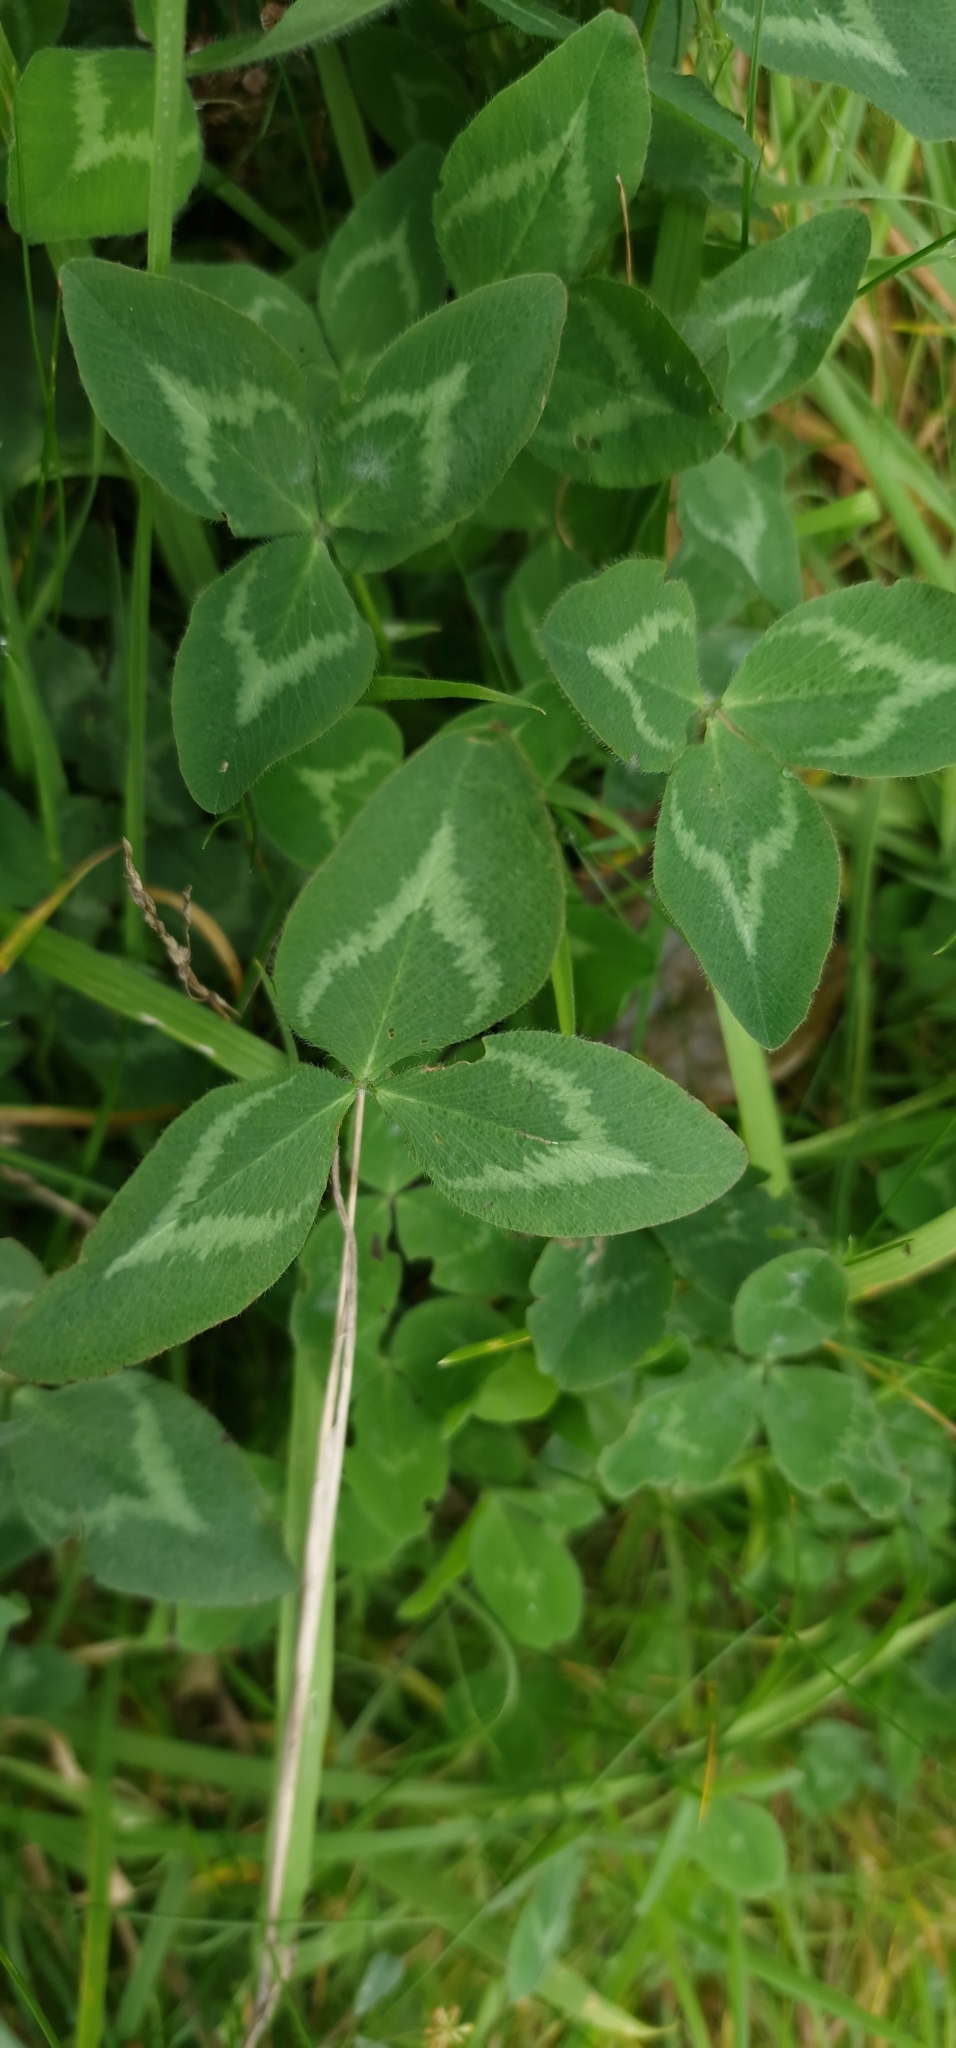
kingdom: Plantae
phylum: Tracheophyta
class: Magnoliopsida
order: Fabales
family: Fabaceae
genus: Trifolium
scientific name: Trifolium pratense
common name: Red clover
